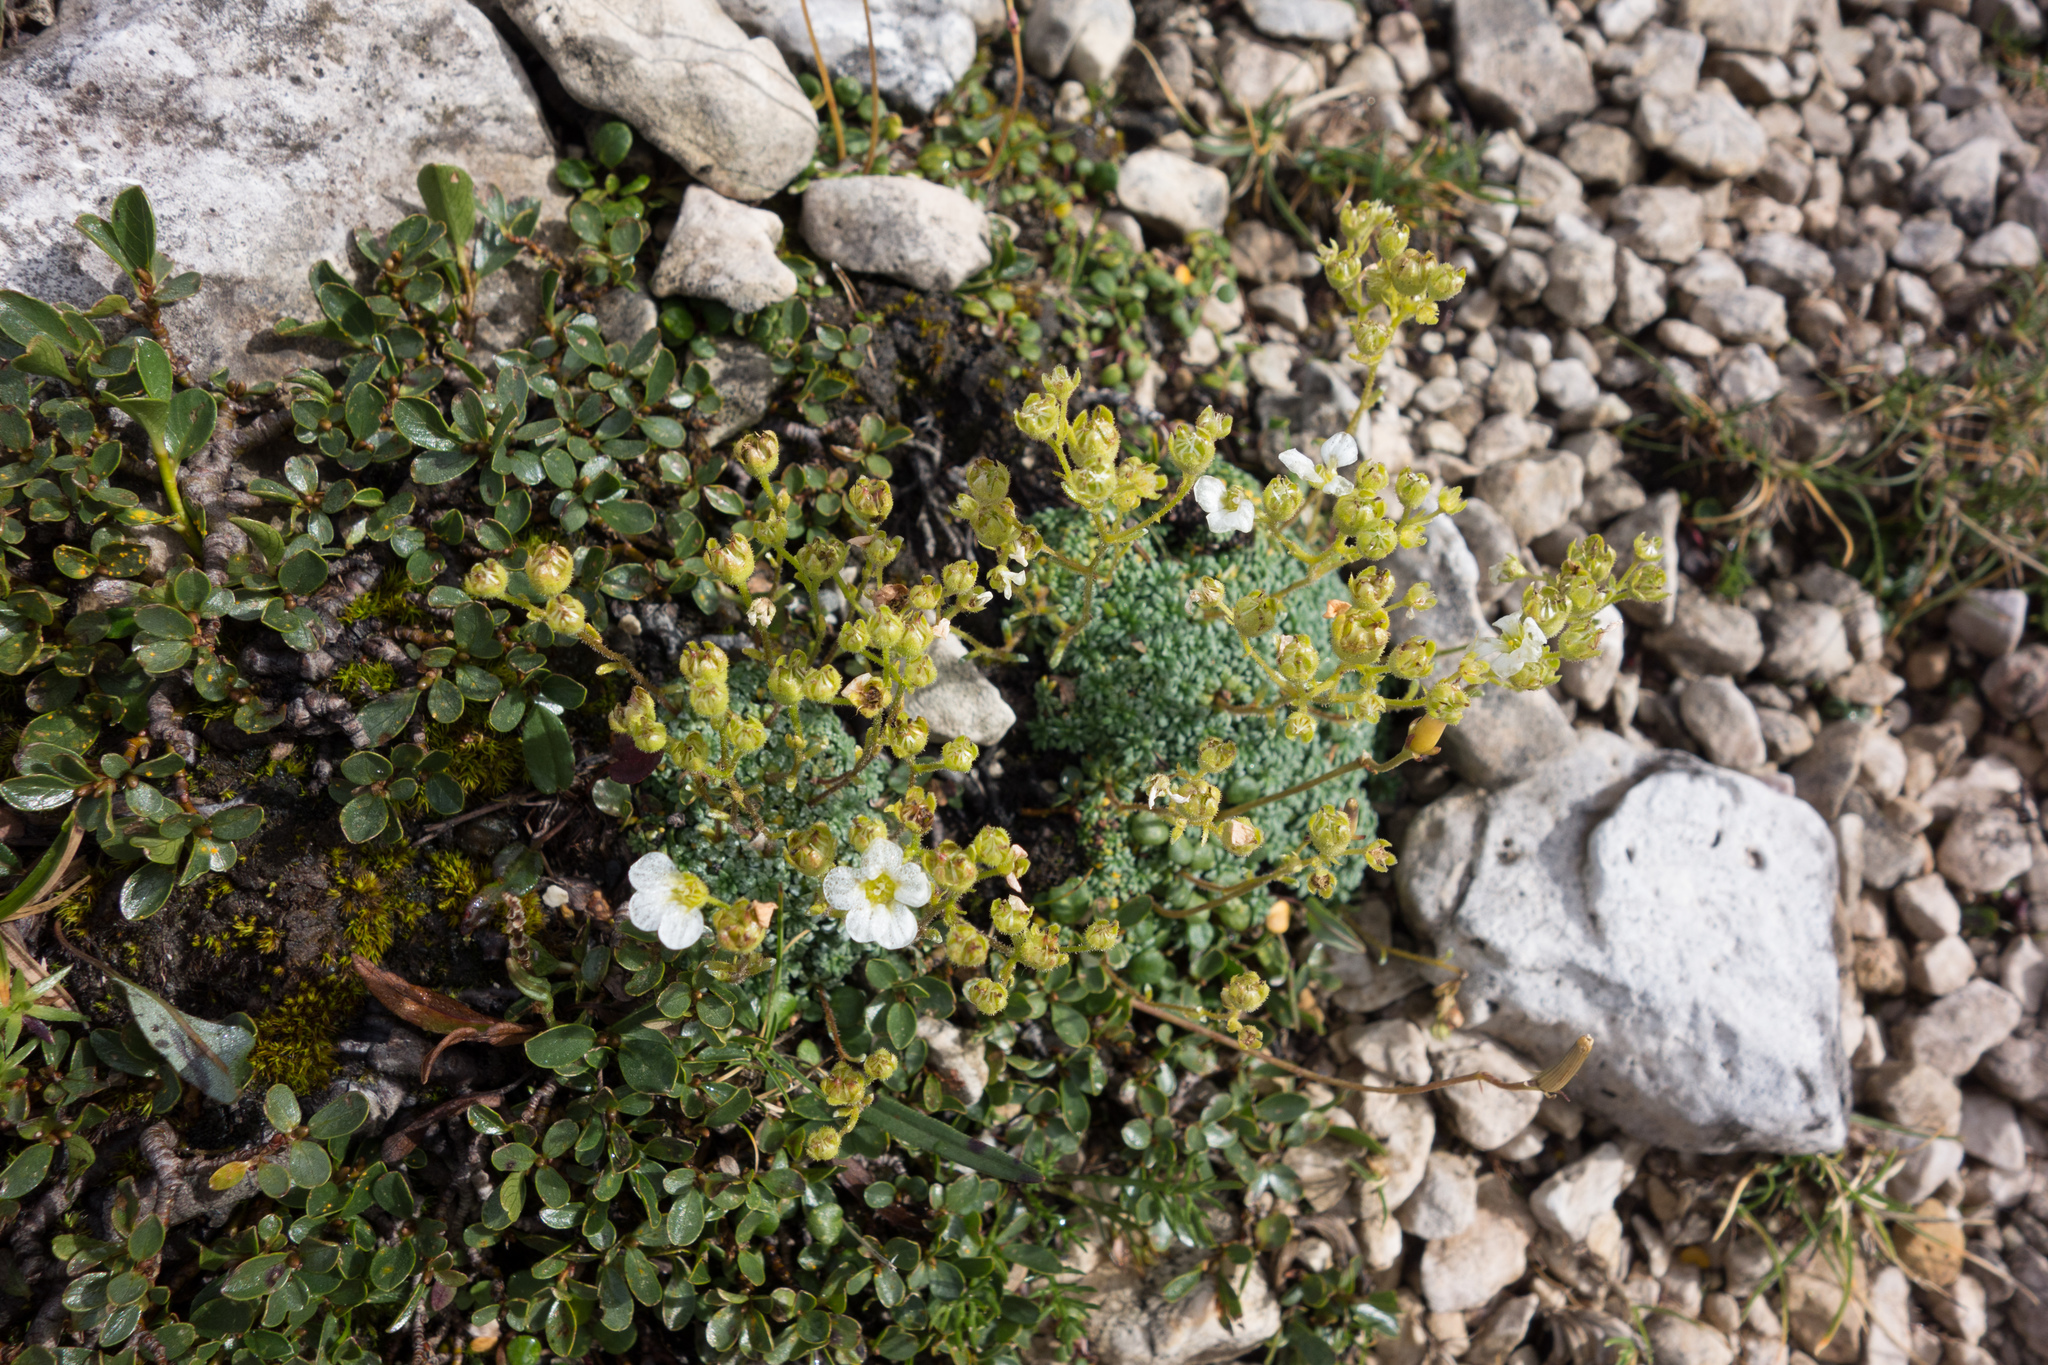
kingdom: Plantae
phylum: Tracheophyta
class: Magnoliopsida
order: Saxifragales
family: Saxifragaceae
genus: Saxifraga
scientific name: Saxifraga caesia
